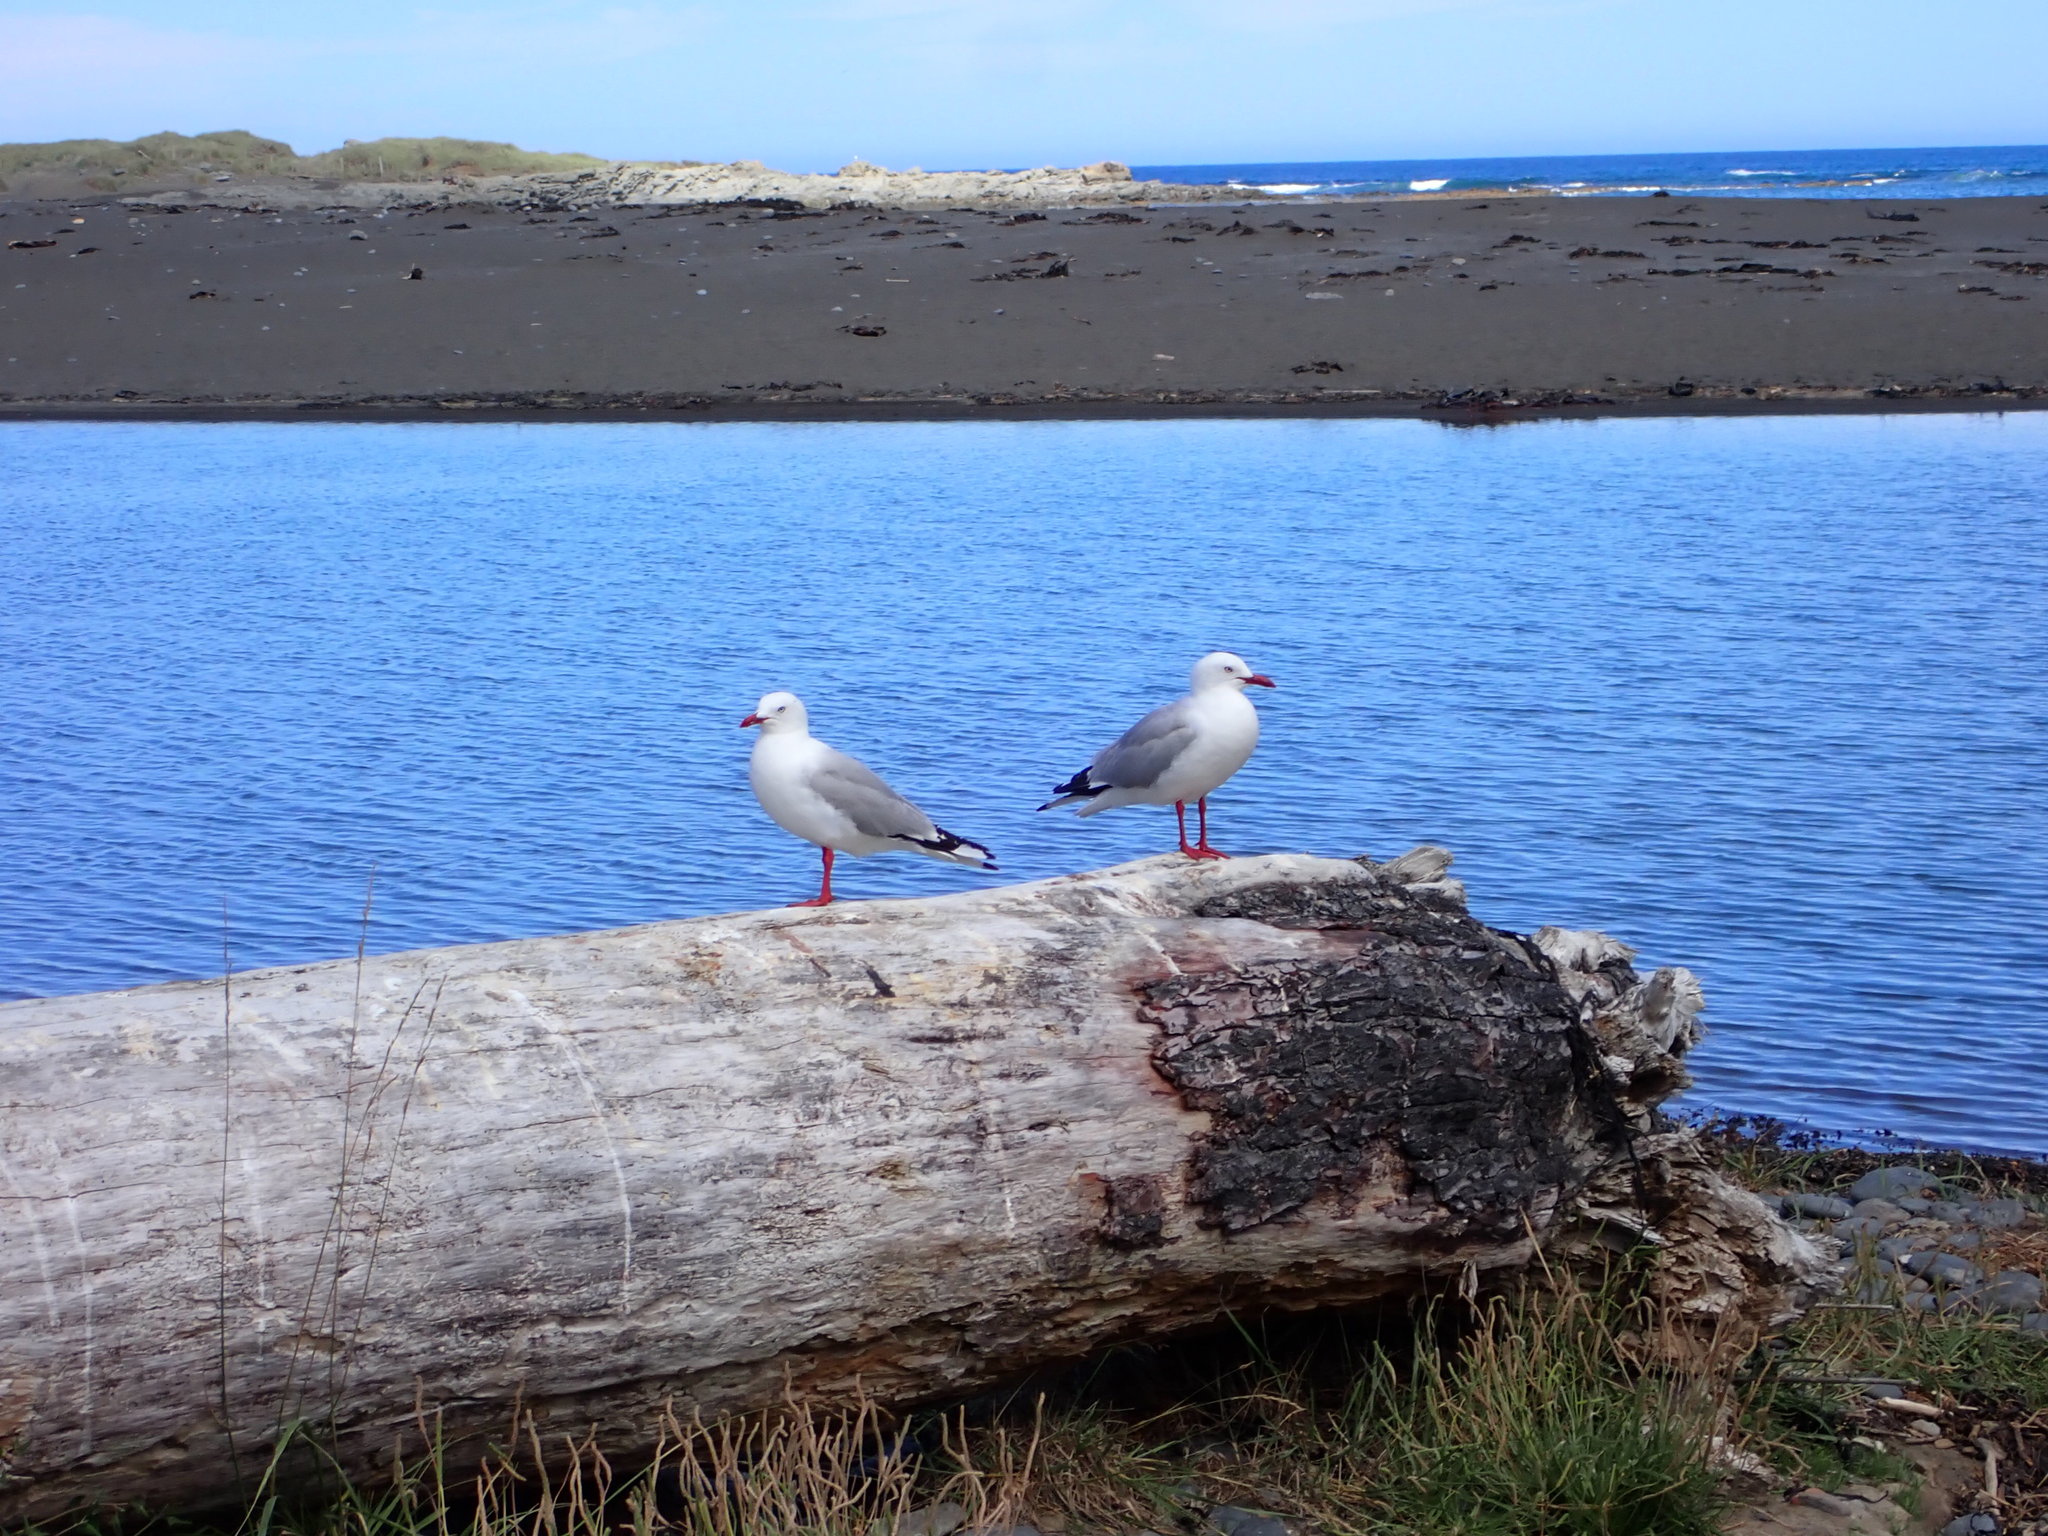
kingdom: Animalia
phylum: Chordata
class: Aves
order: Charadriiformes
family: Laridae
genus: Chroicocephalus
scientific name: Chroicocephalus novaehollandiae
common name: Silver gull
